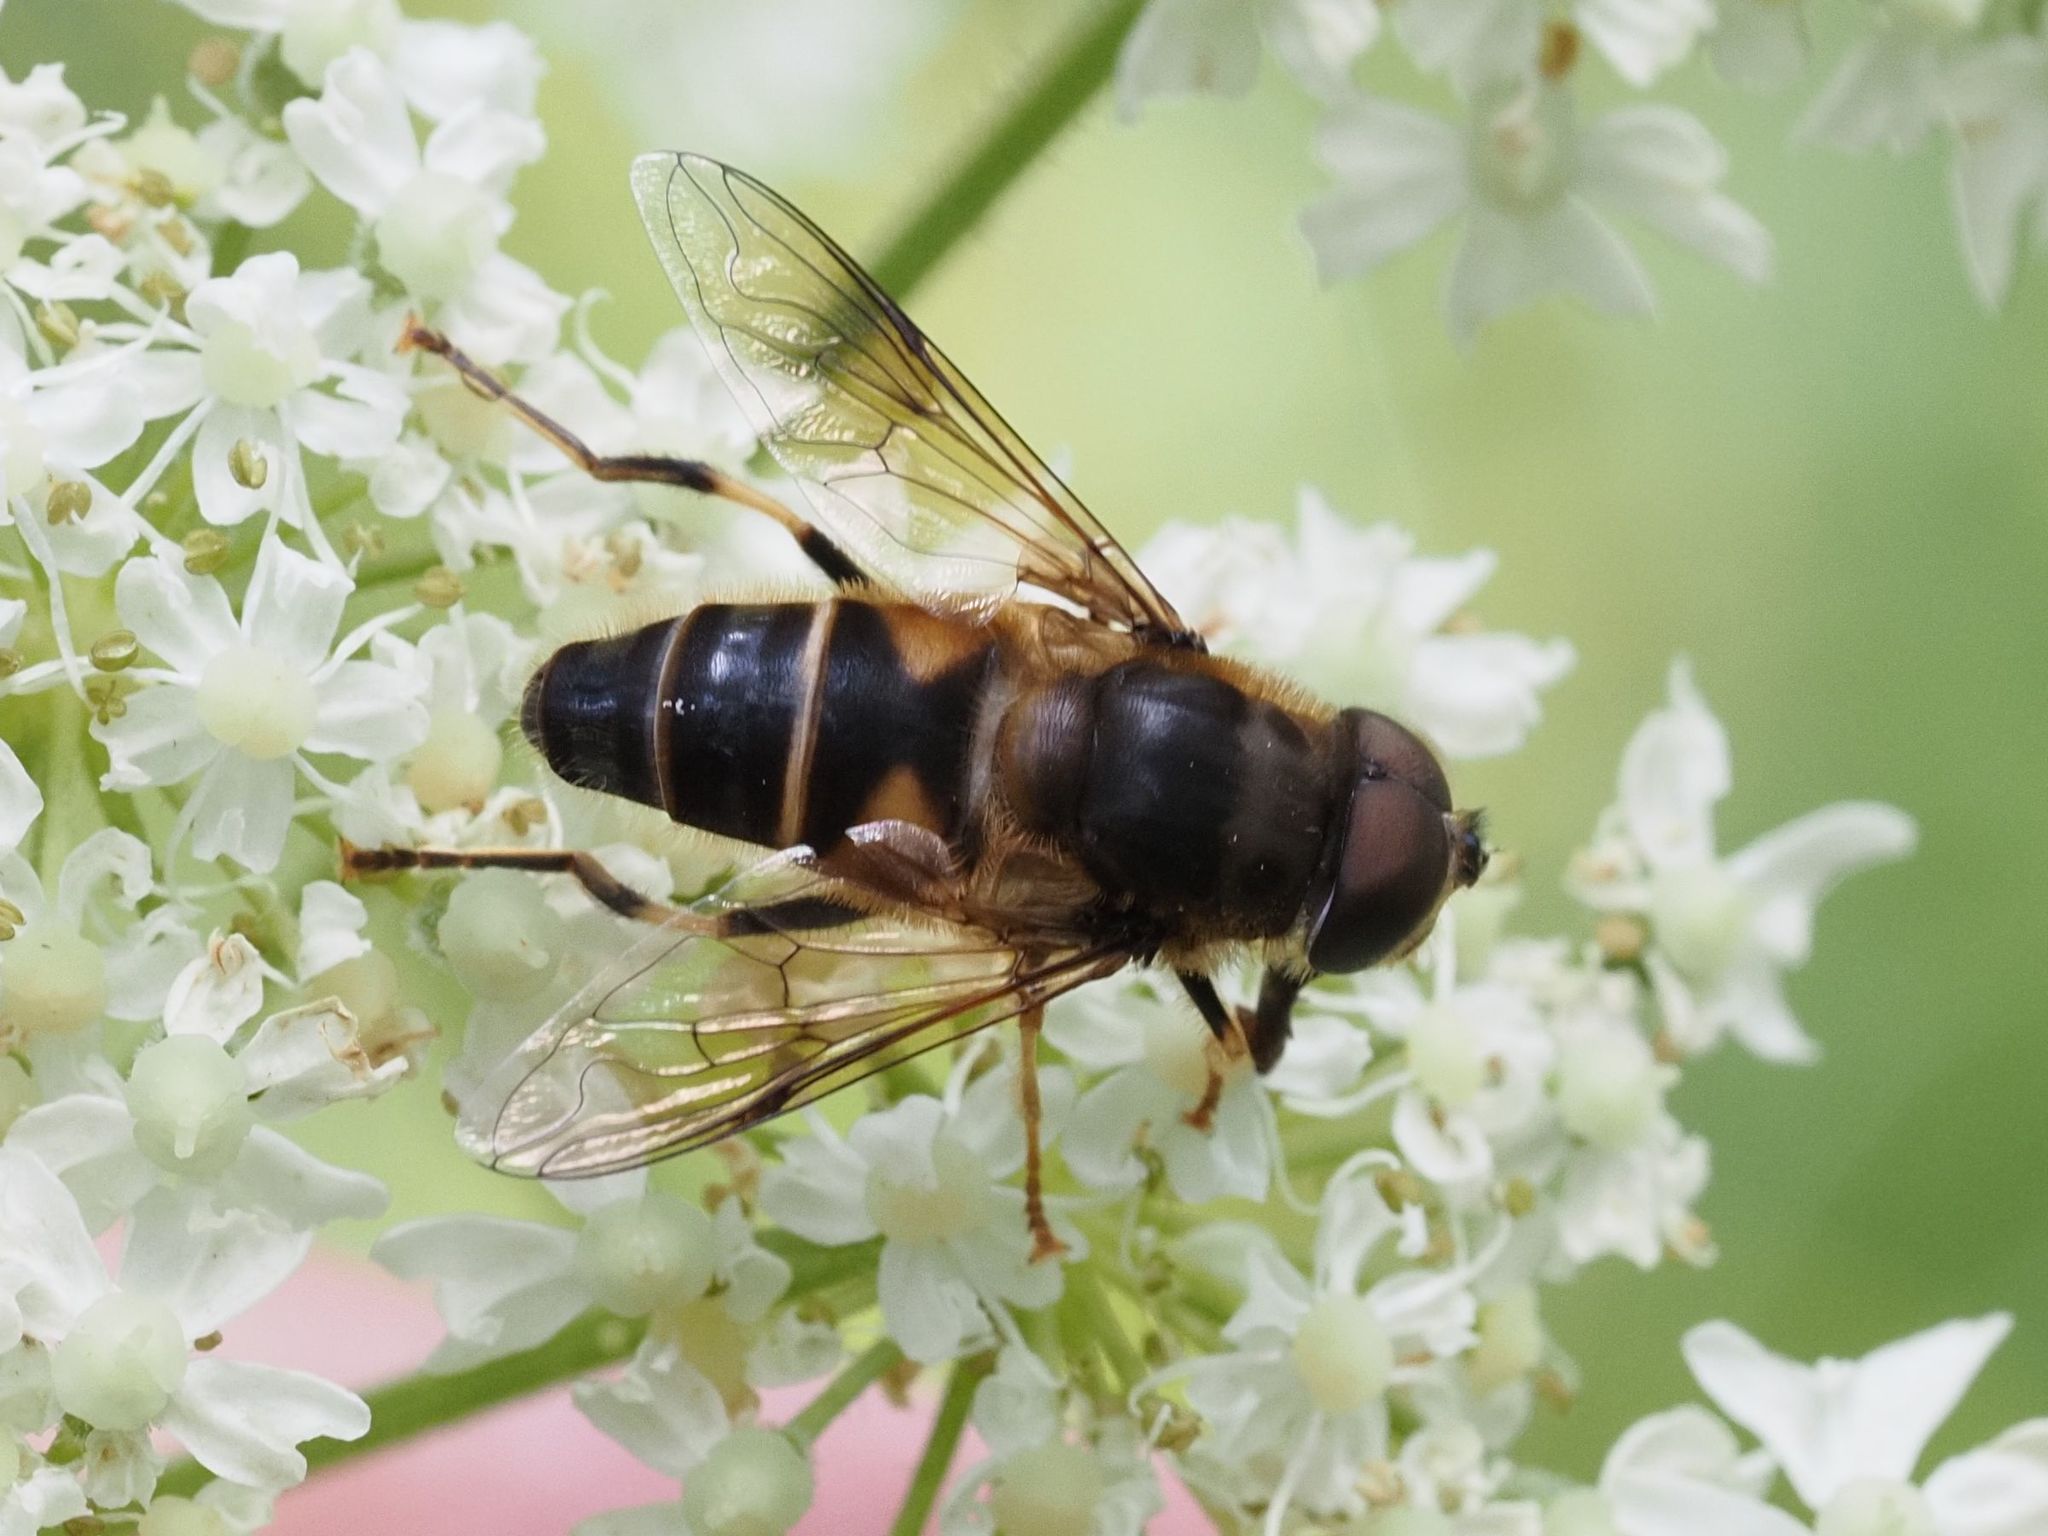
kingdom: Animalia
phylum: Arthropoda
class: Insecta
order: Diptera
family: Syrphidae
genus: Eristalis
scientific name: Eristalis pertinax
